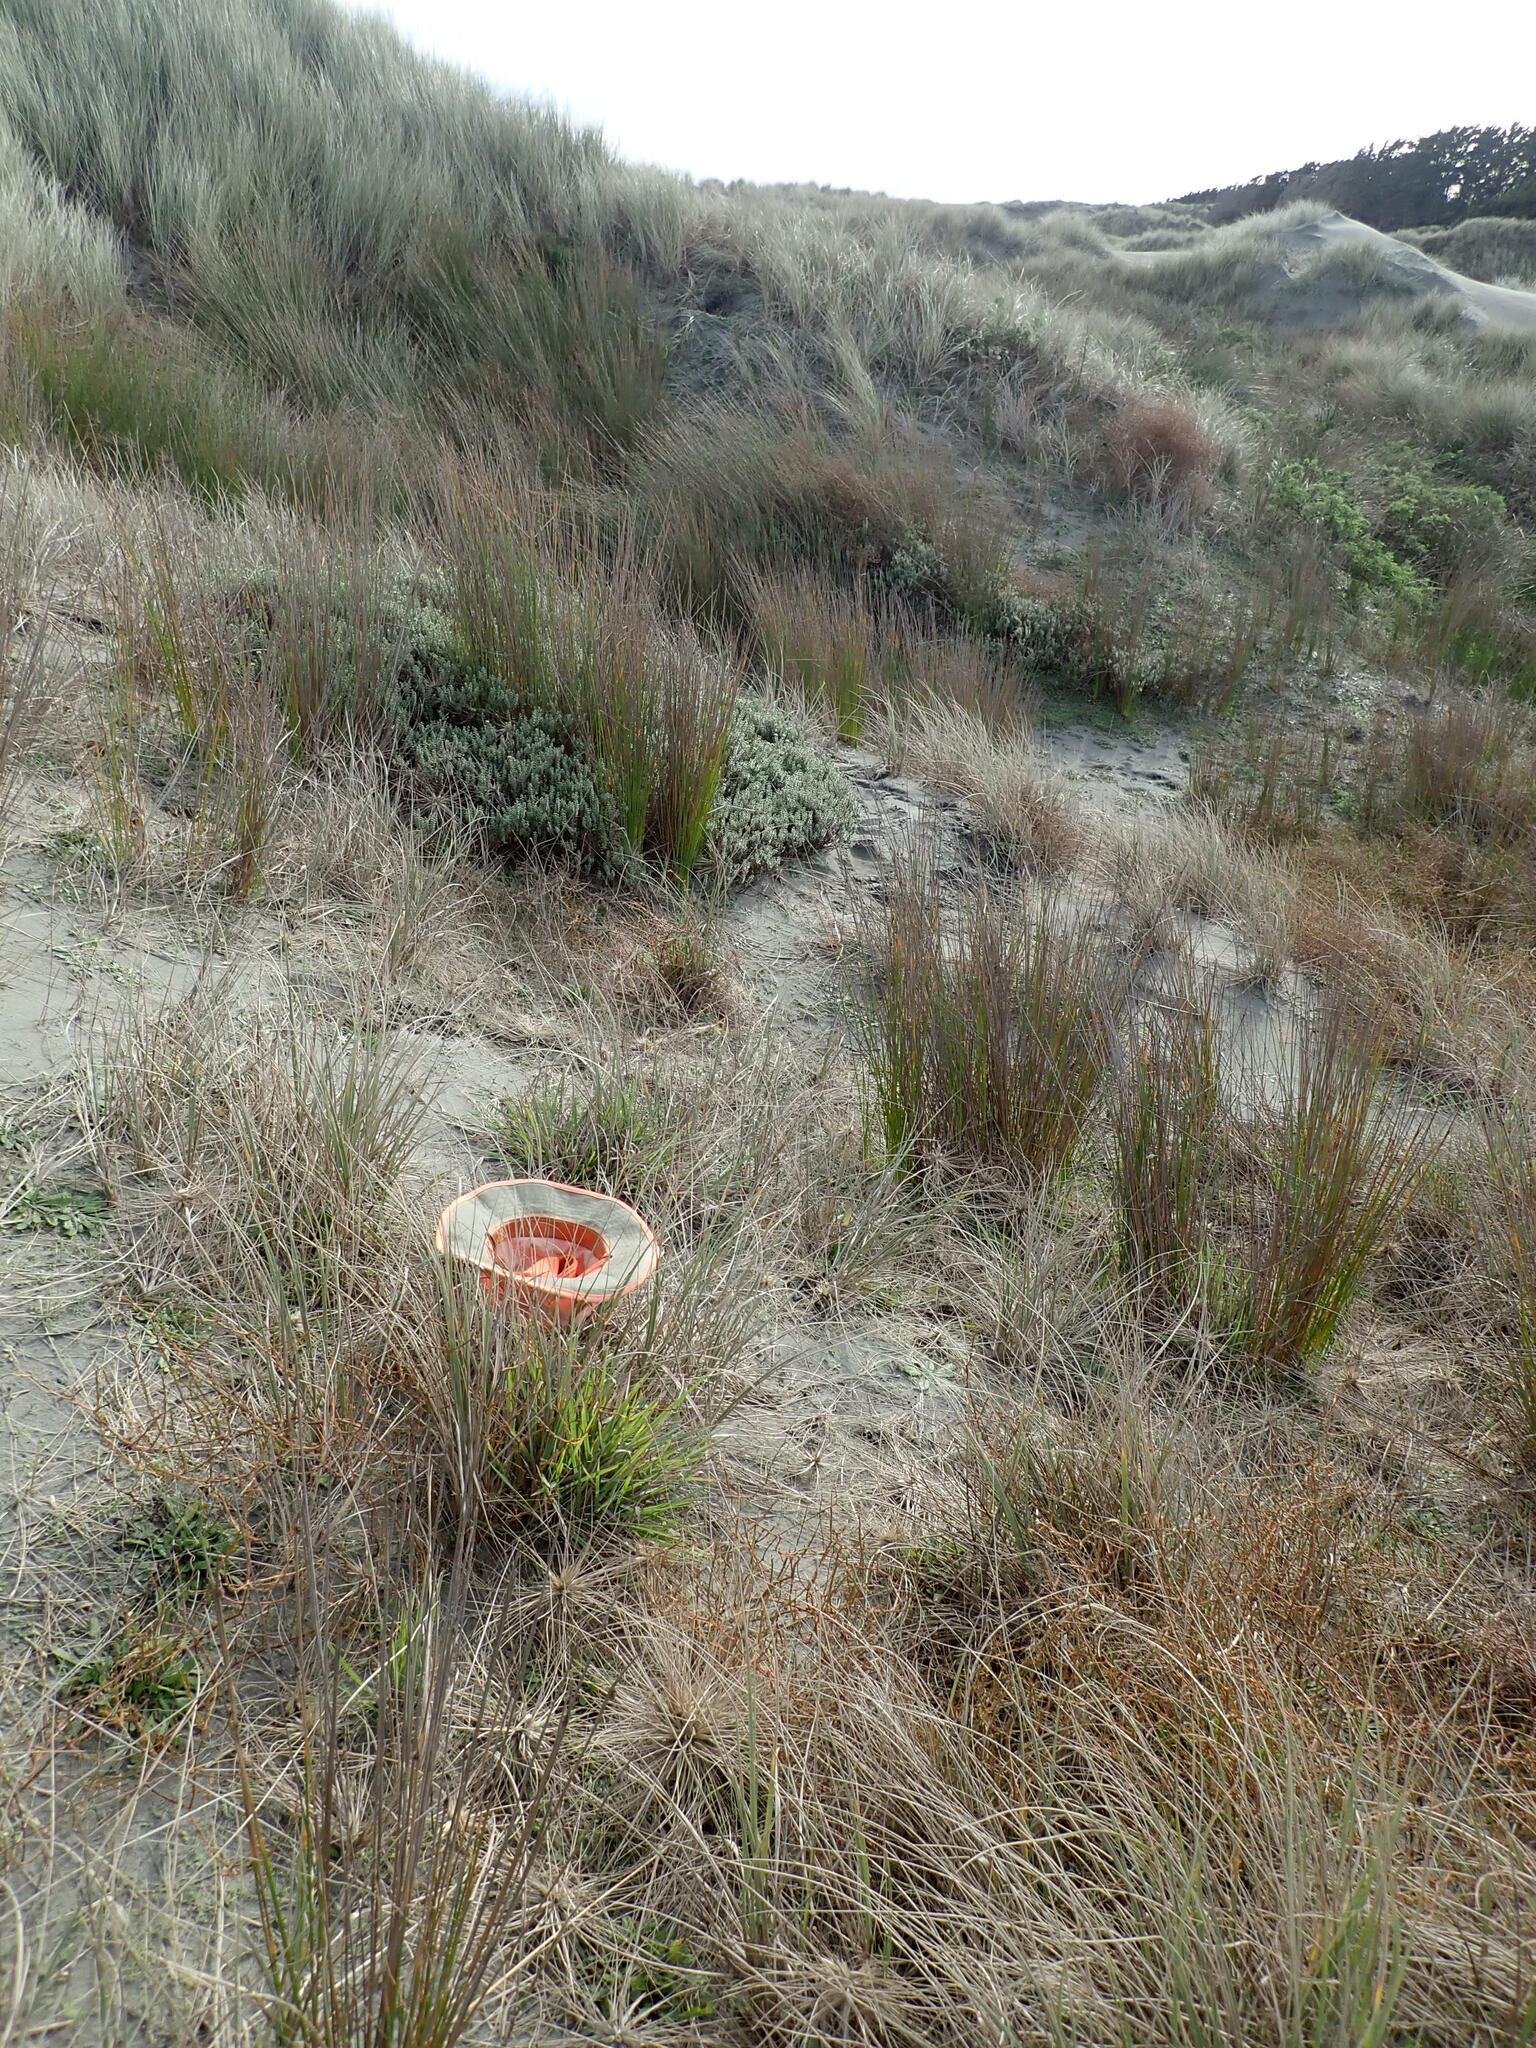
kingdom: Plantae
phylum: Tracheophyta
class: Liliopsida
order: Poales
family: Poaceae
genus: Lachnagrostis
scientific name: Lachnagrostis billardierei
